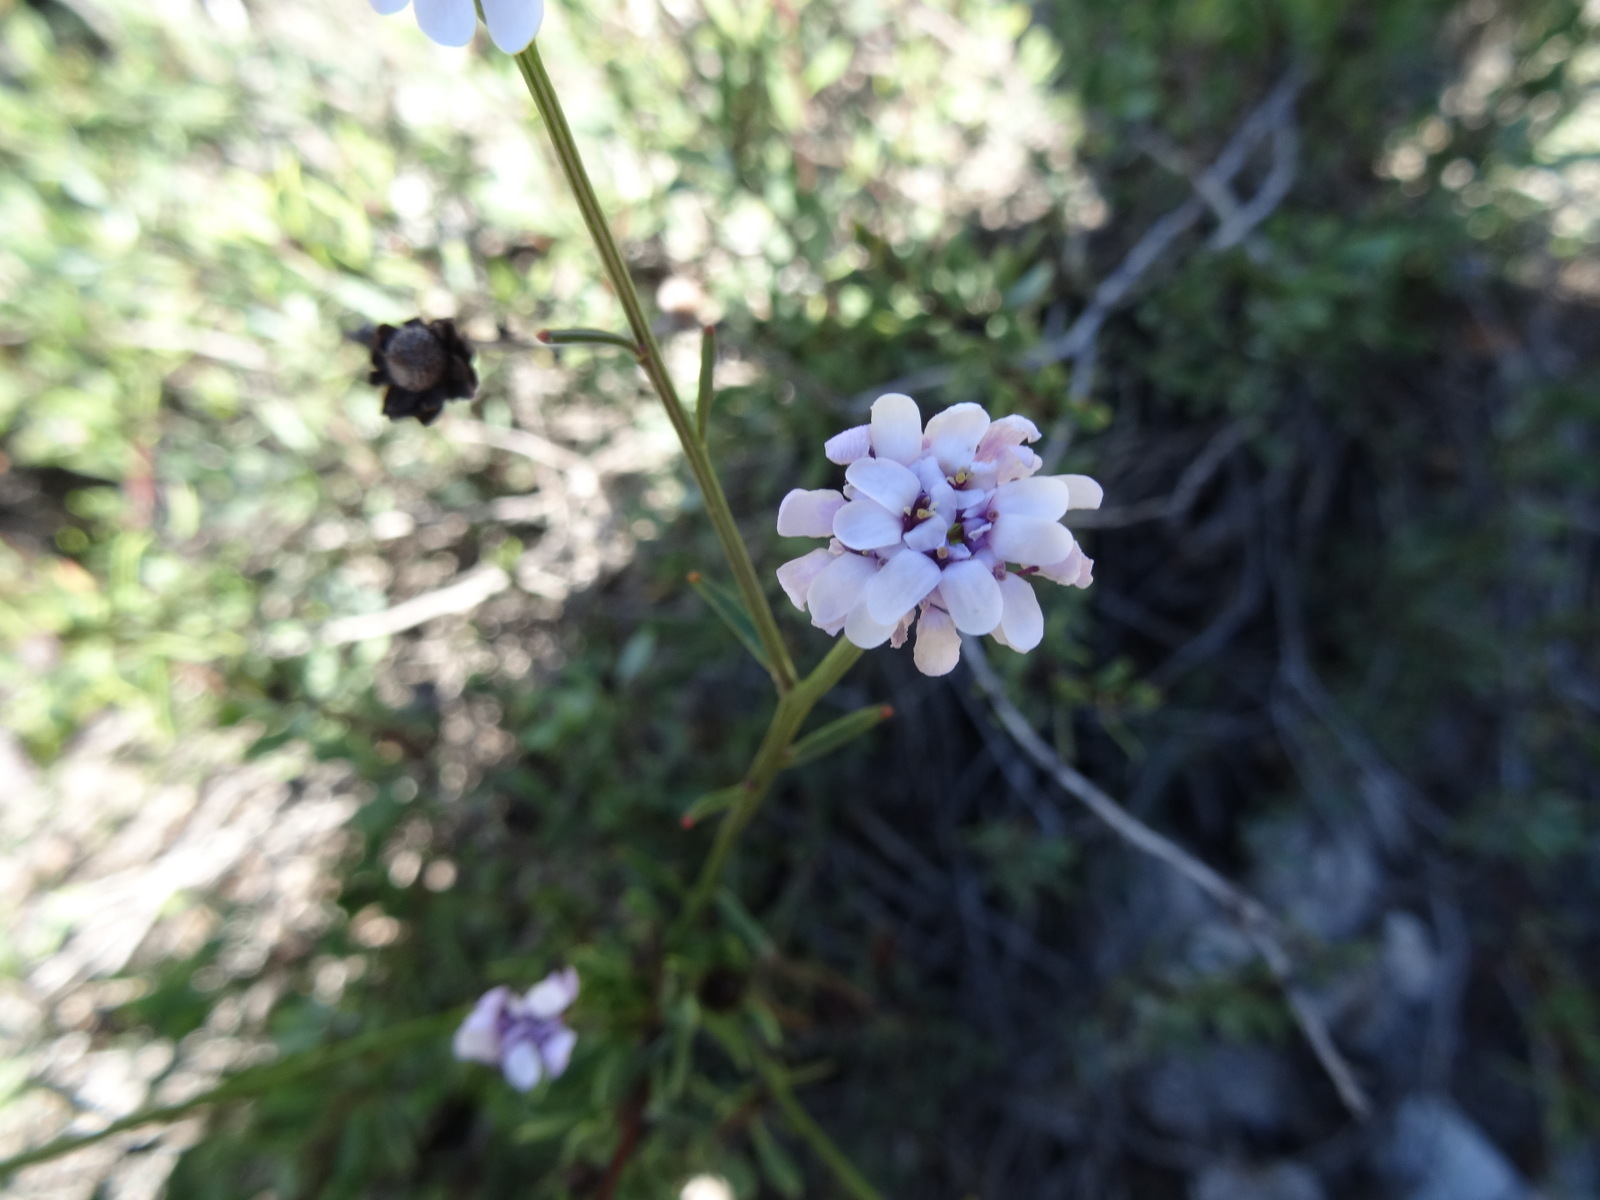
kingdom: Plantae
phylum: Tracheophyta
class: Magnoliopsida
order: Brassicales
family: Brassicaceae
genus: Iberis
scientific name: Iberis linifolia
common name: Candytuft
